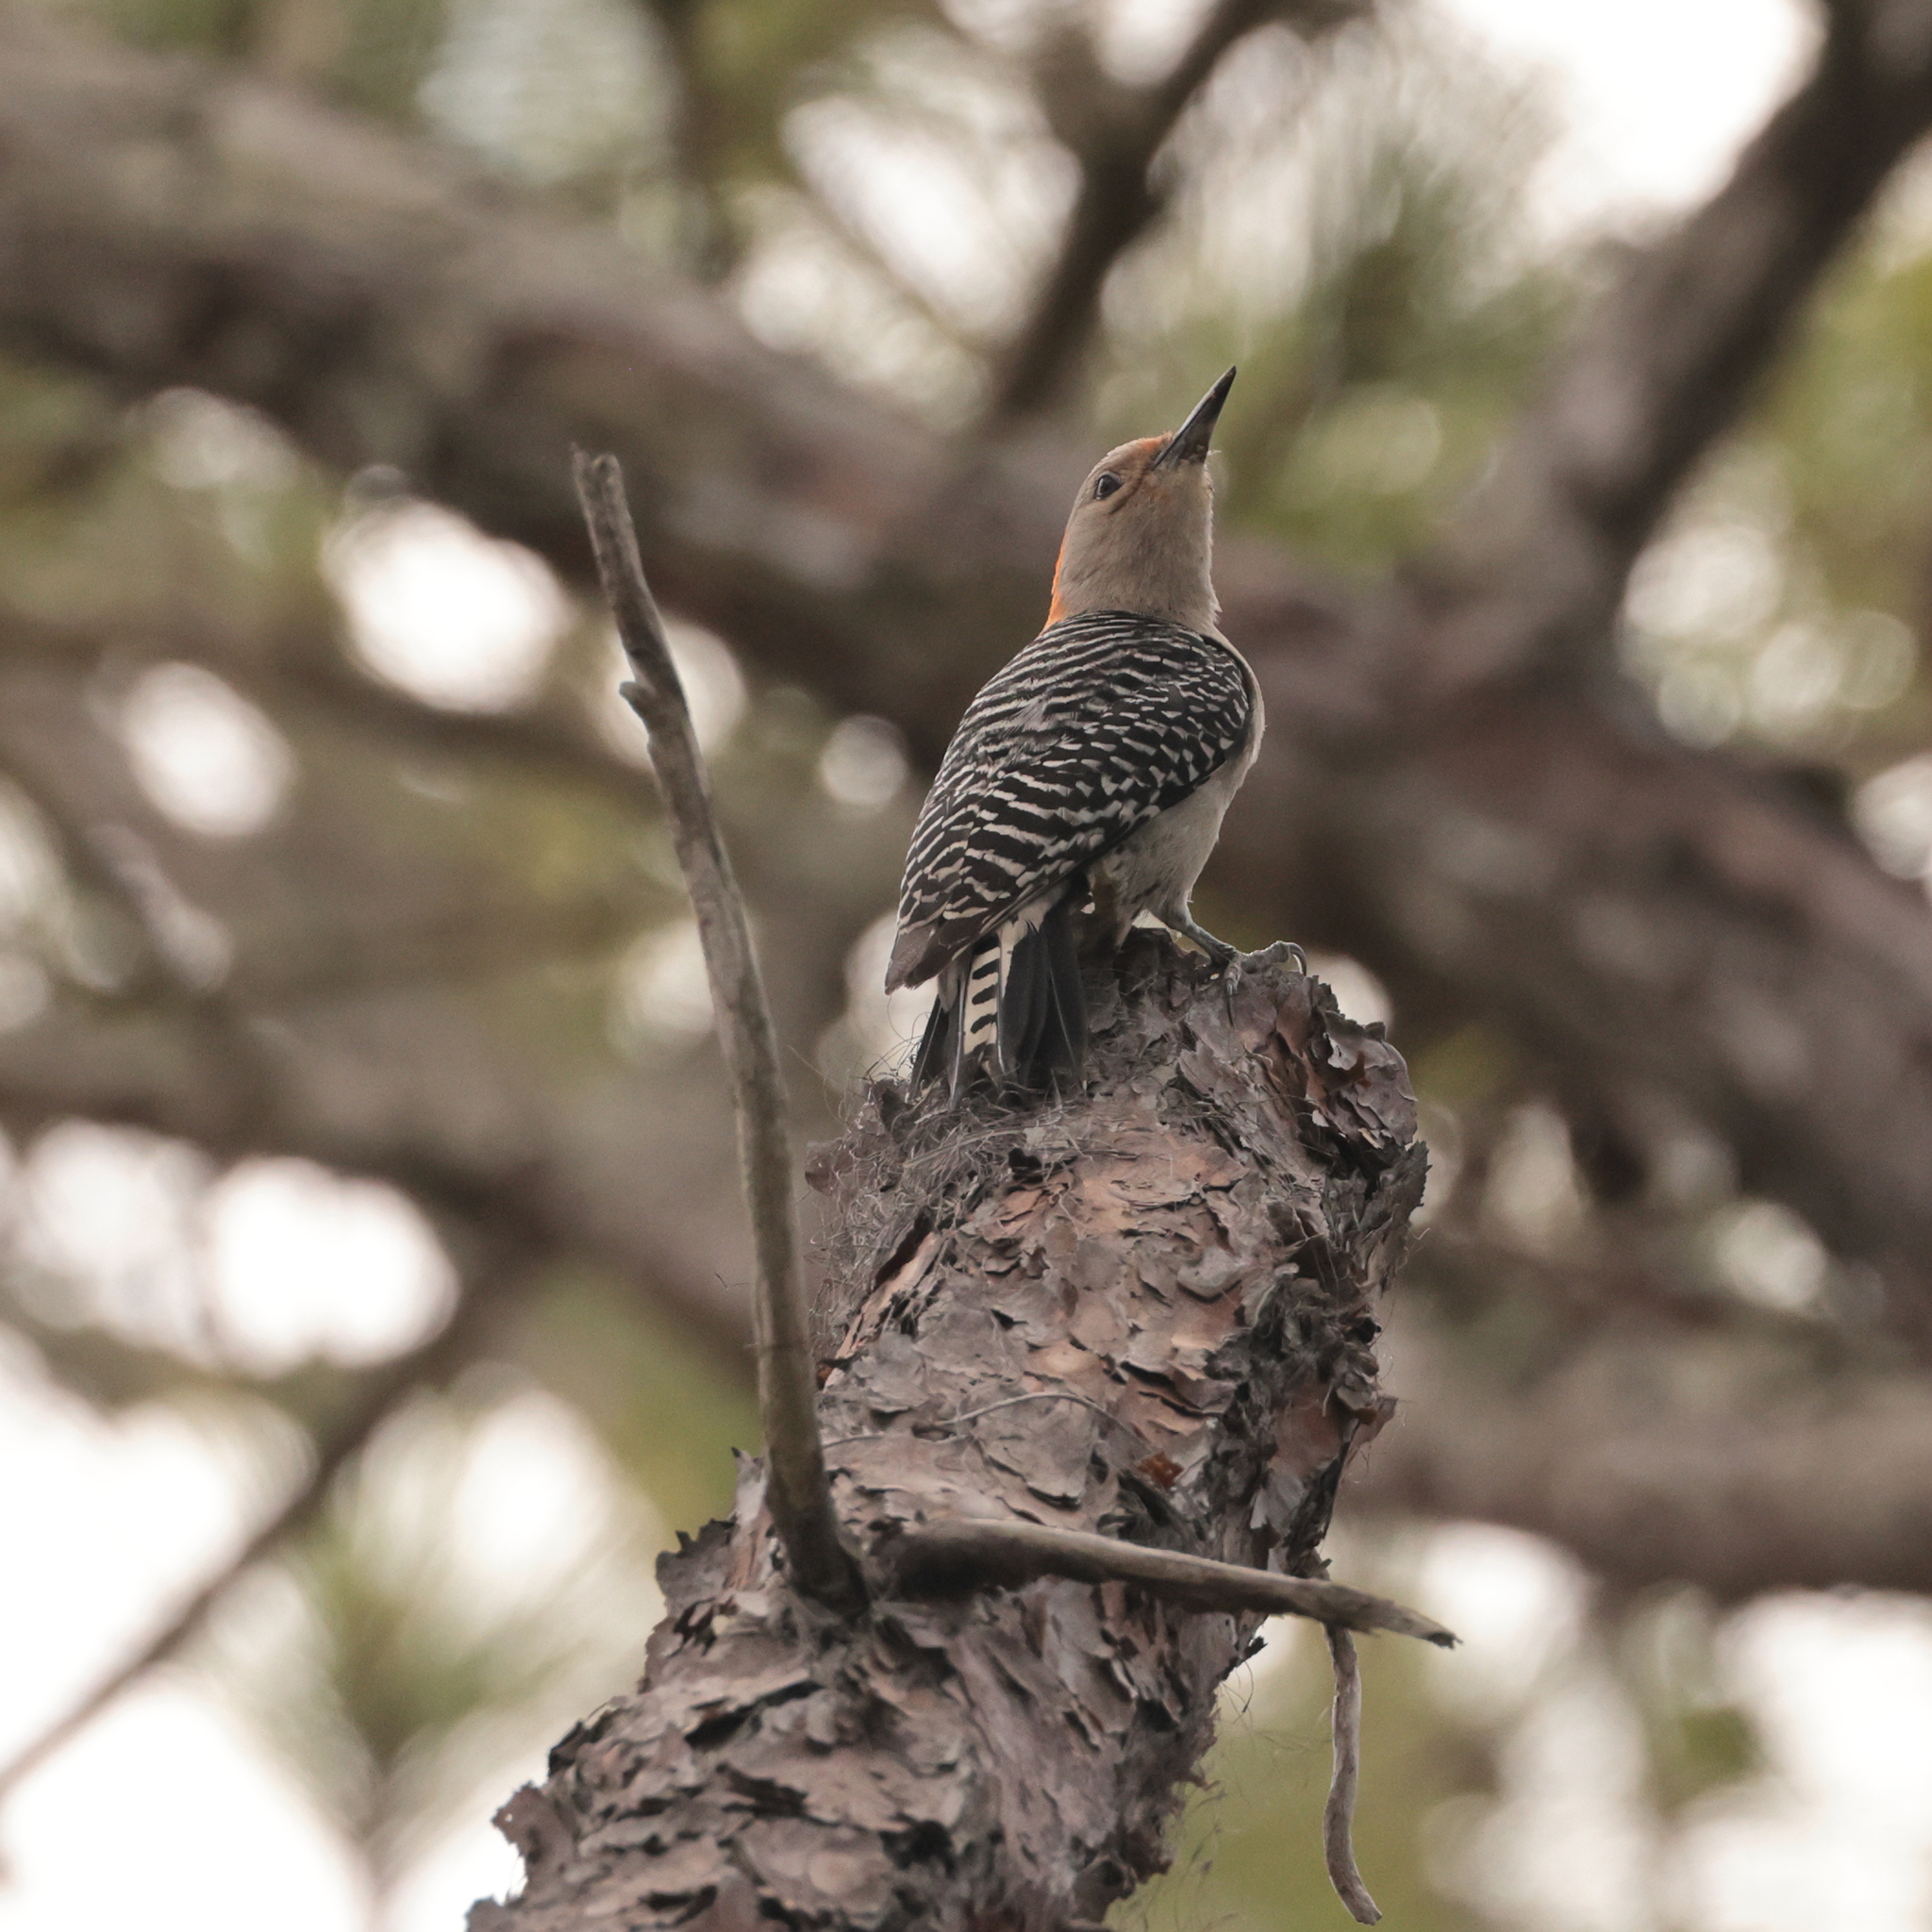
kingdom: Animalia
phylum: Chordata
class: Aves
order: Piciformes
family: Picidae
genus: Melanerpes
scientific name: Melanerpes carolinus
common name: Red-bellied woodpecker
